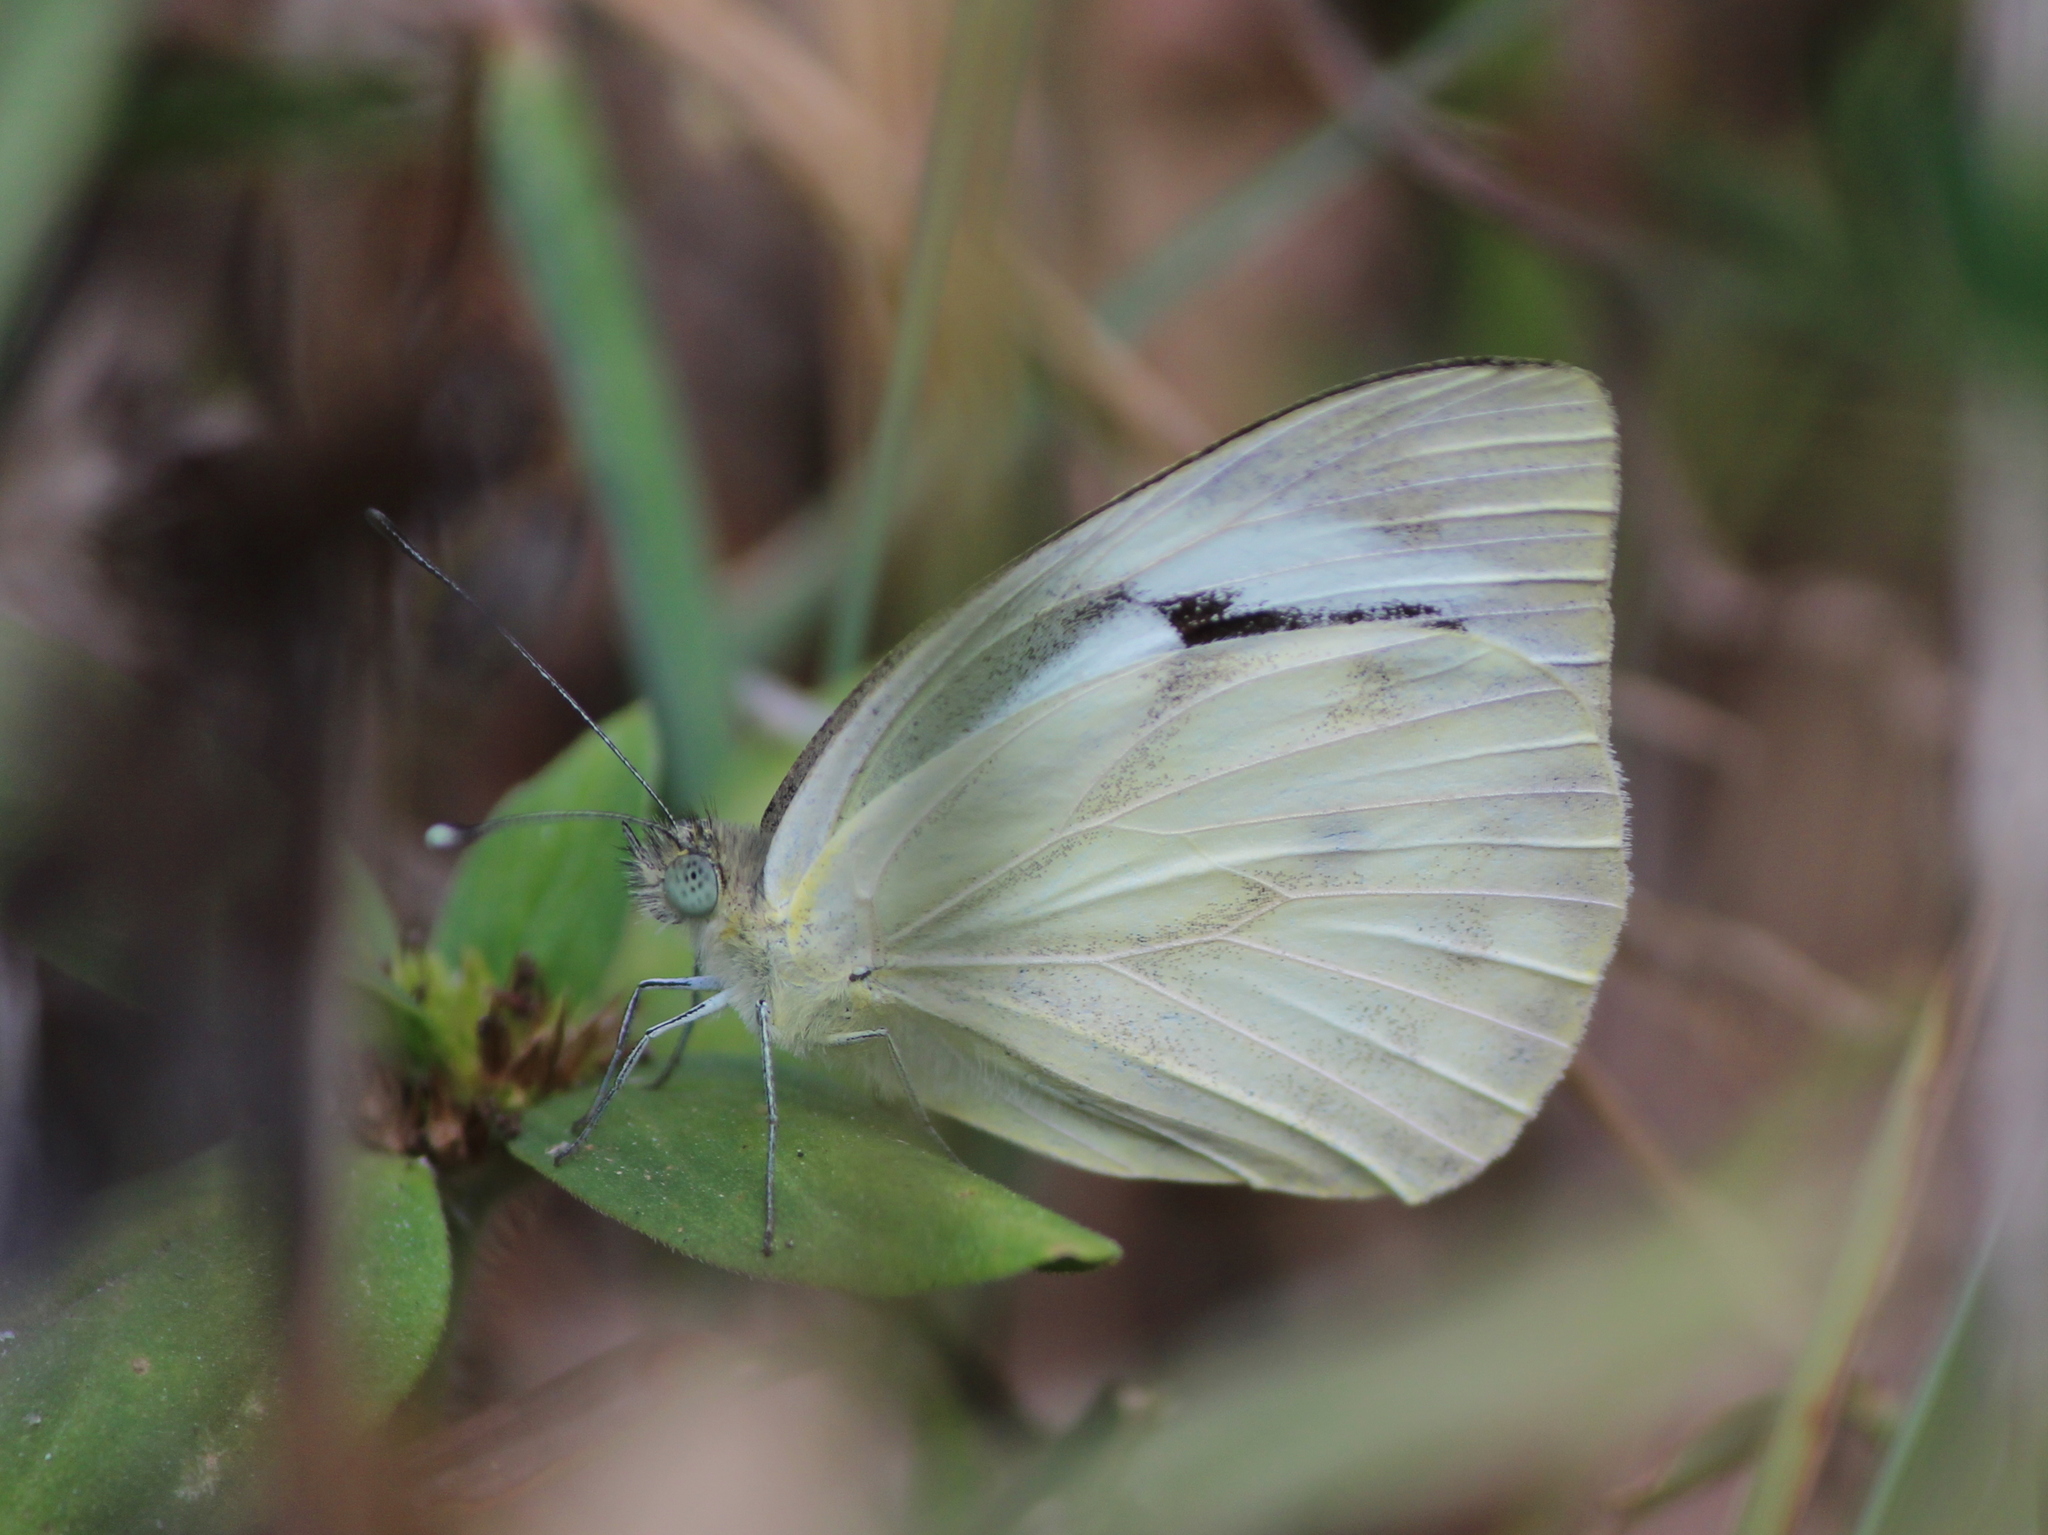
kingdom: Animalia
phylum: Arthropoda
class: Insecta
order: Lepidoptera
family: Pieridae
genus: Cepora
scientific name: Cepora nerissa
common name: Common gull
